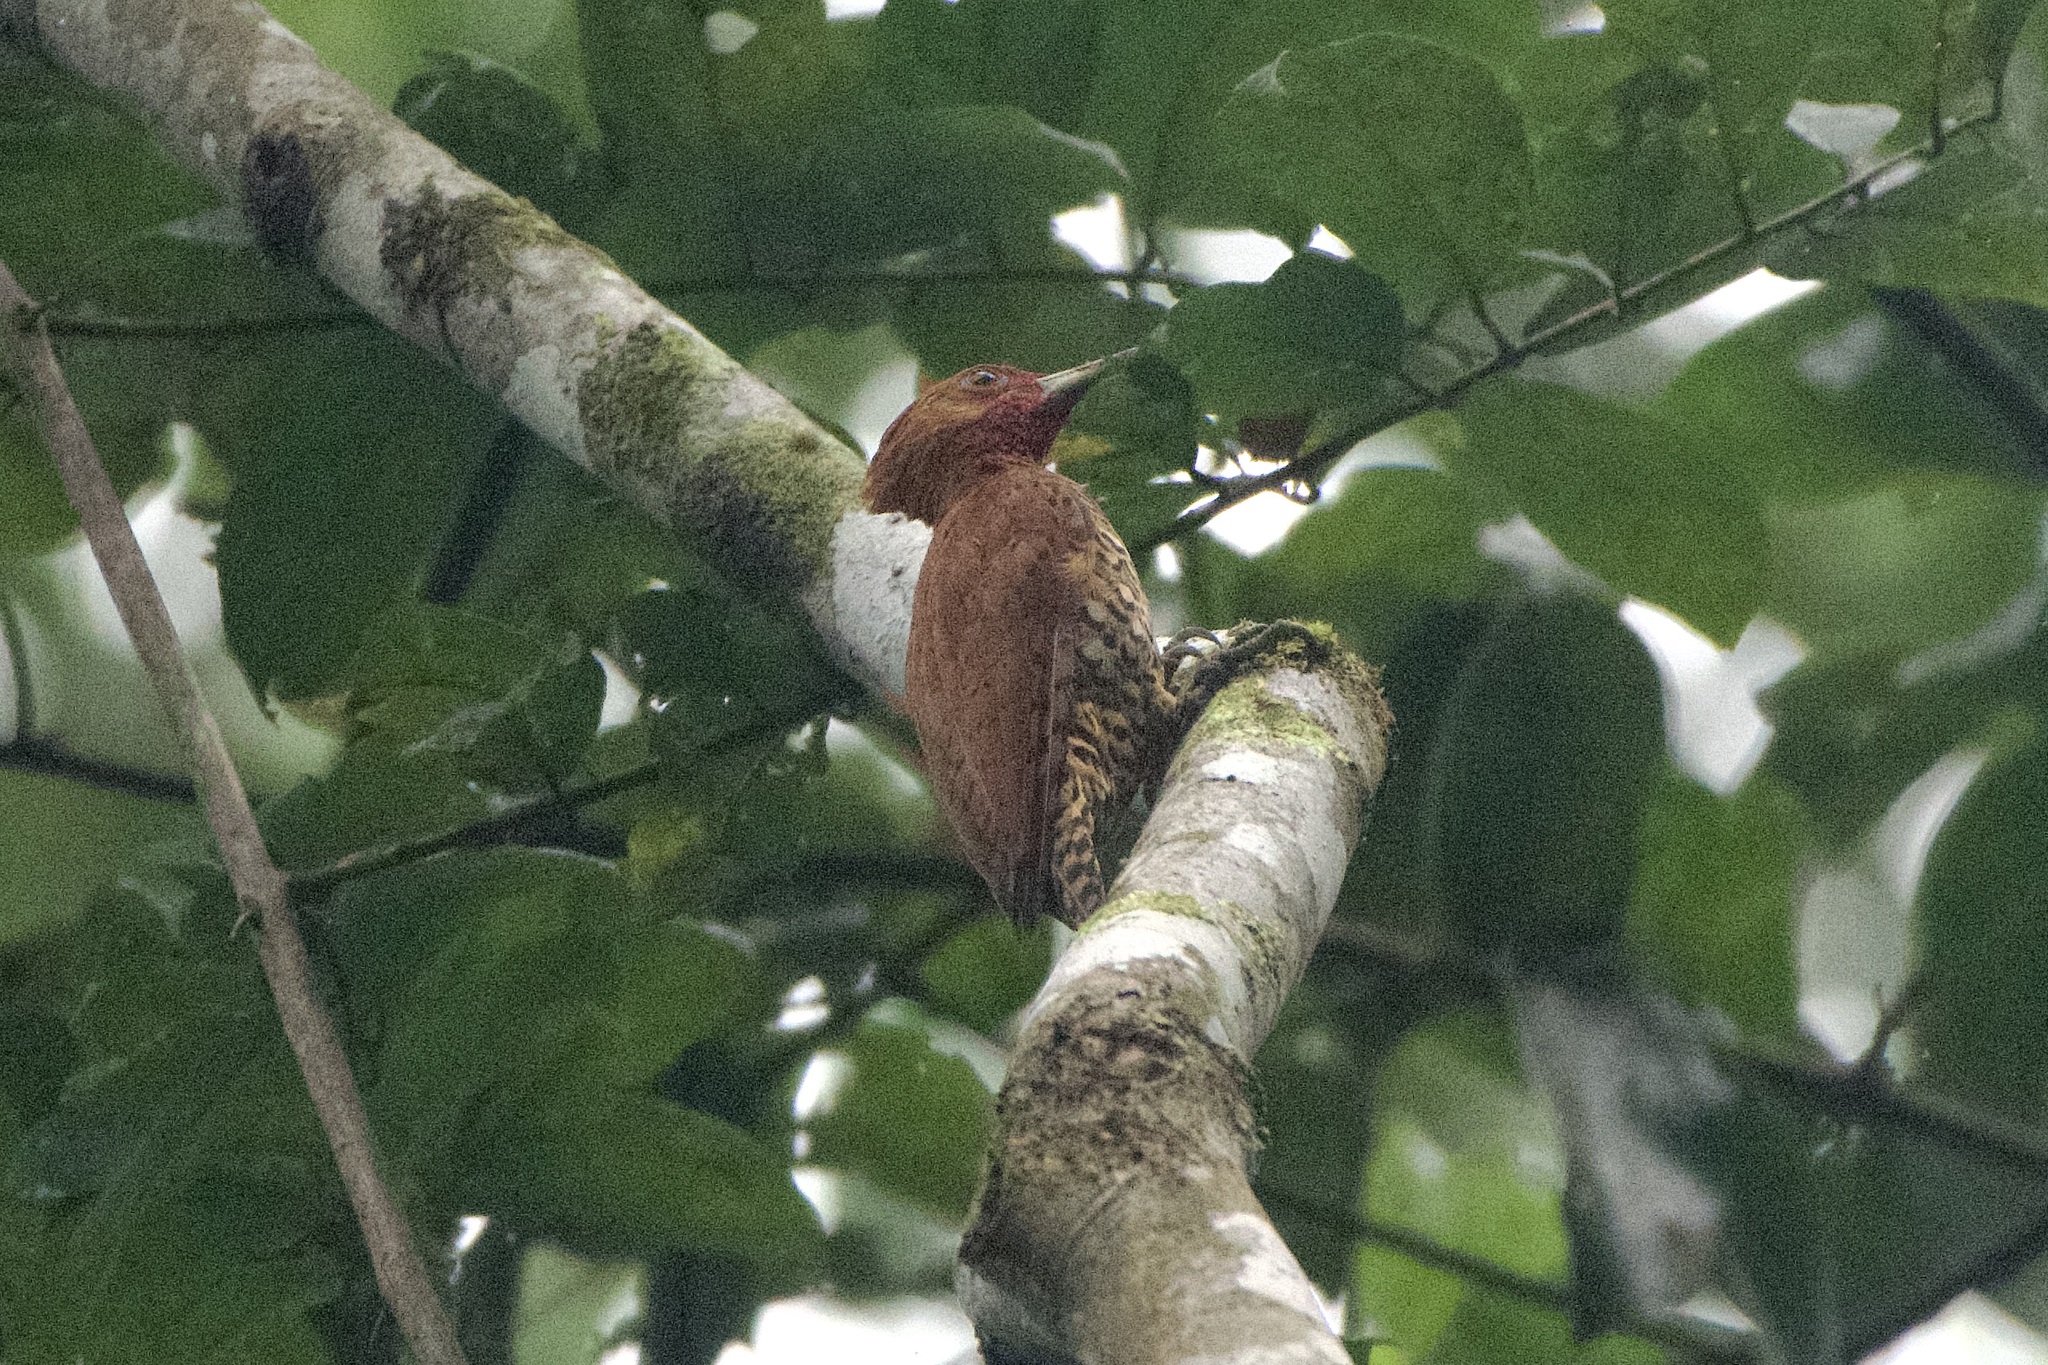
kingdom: Animalia
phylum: Chordata
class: Aves
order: Piciformes
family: Picidae
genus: Celeus
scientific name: Celeus loricatus
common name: Cinnamon woodpecker
